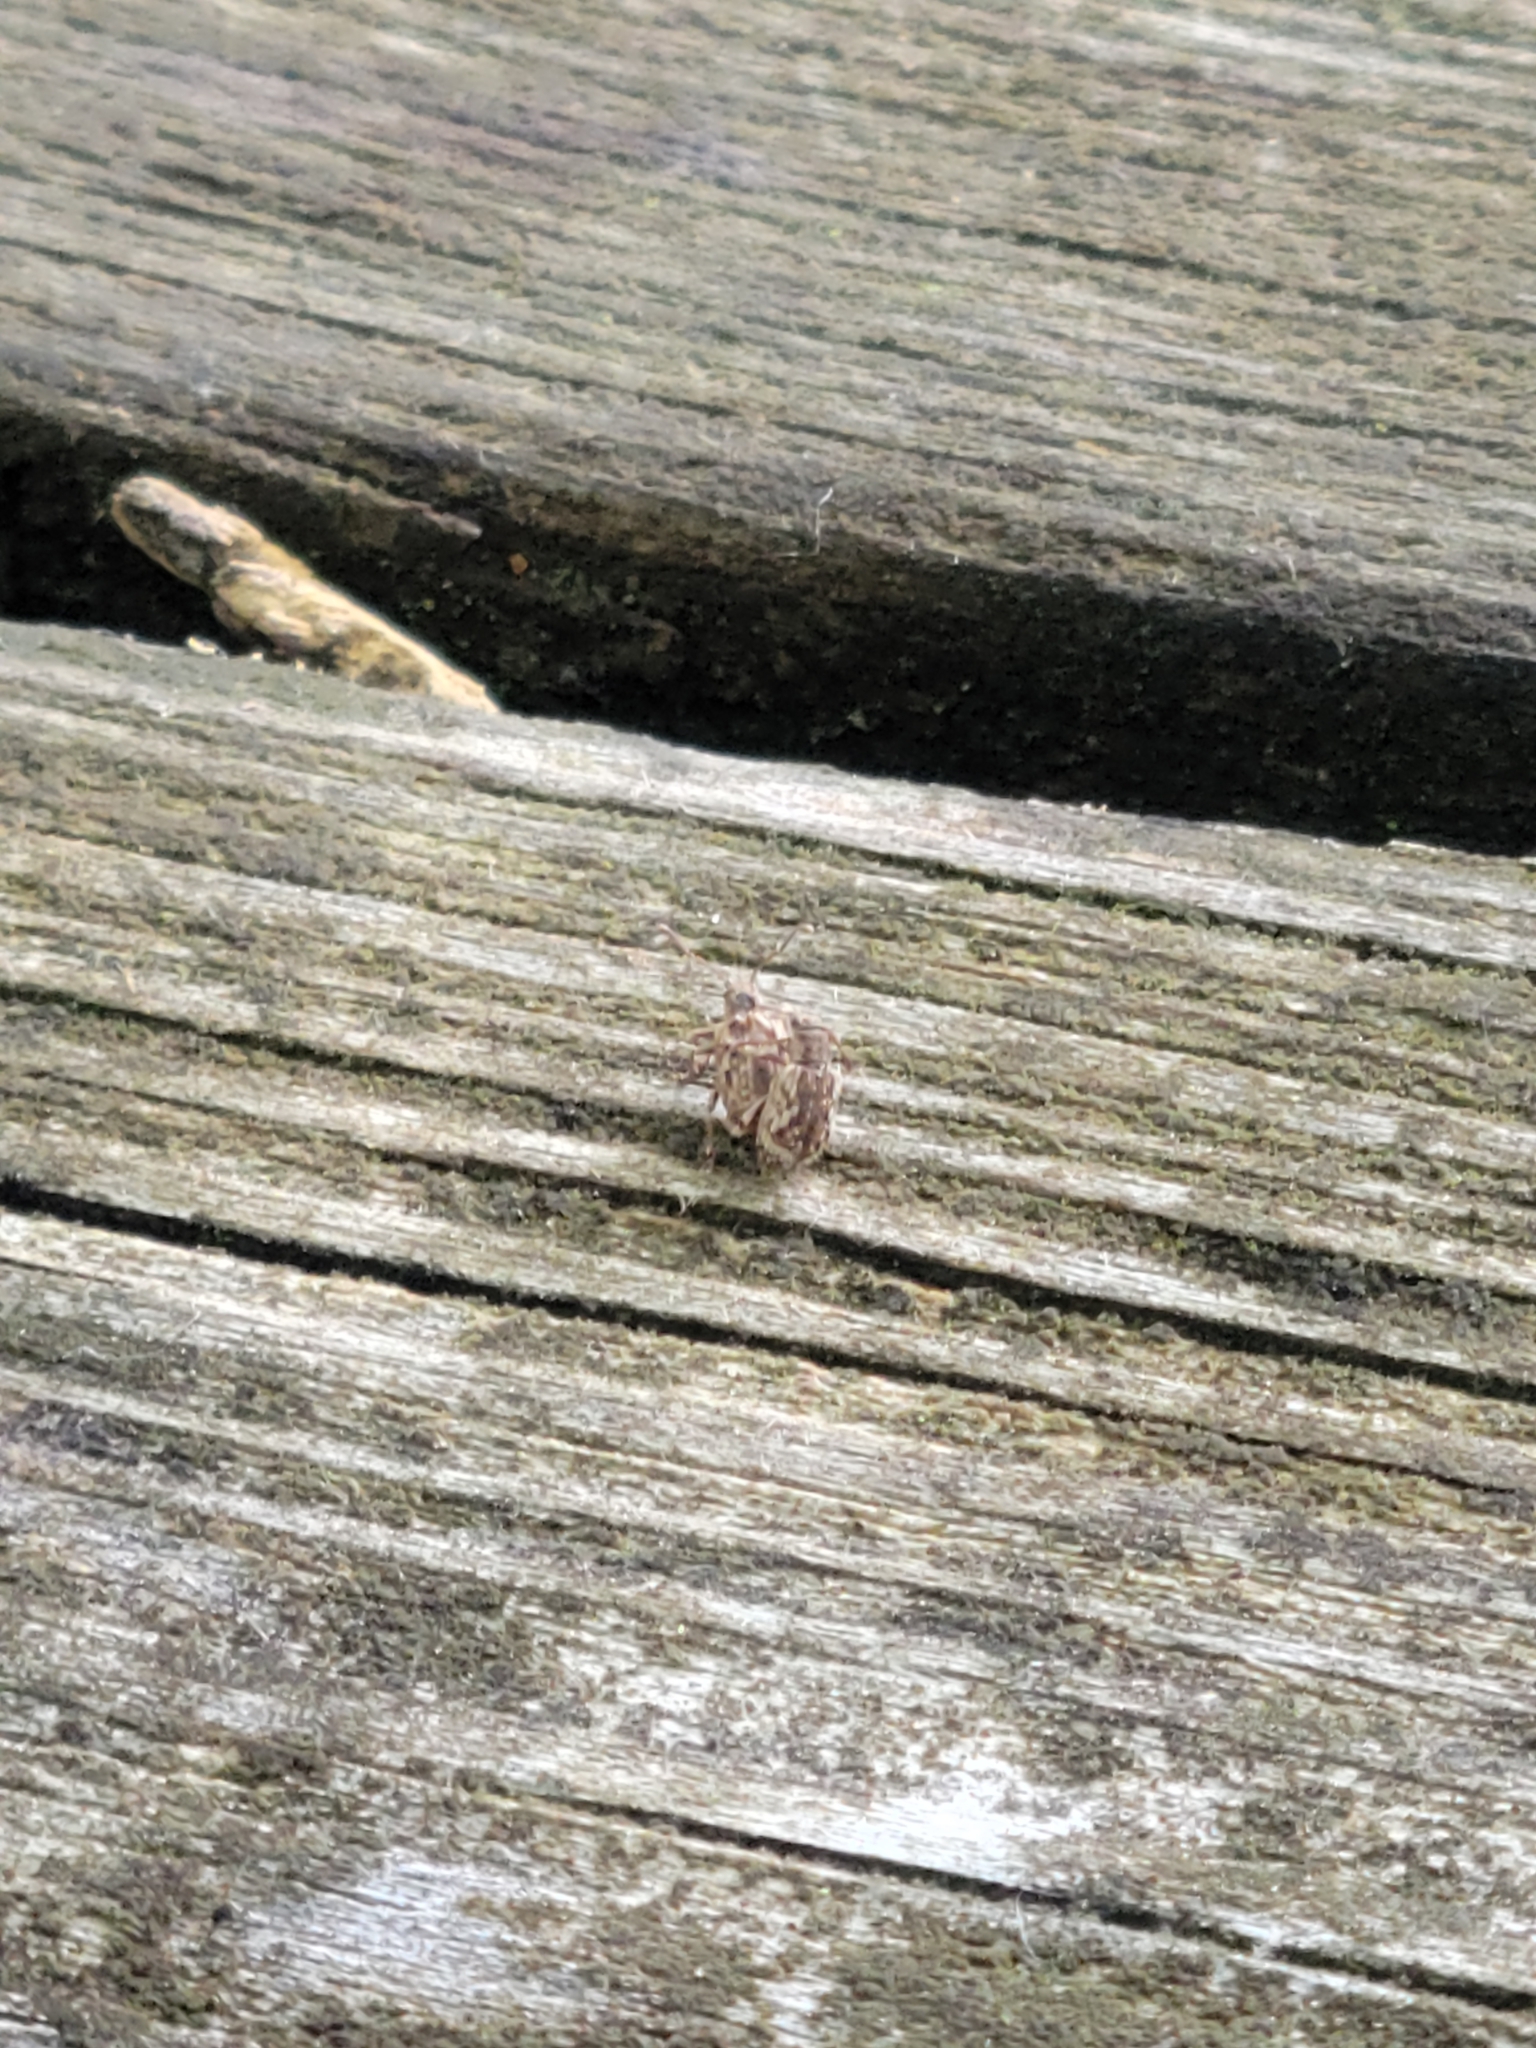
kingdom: Animalia
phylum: Arthropoda
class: Insecta
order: Coleoptera
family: Curculionidae
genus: Pseudoedophrys
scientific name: Pseudoedophrys hilleri
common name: Weevil
